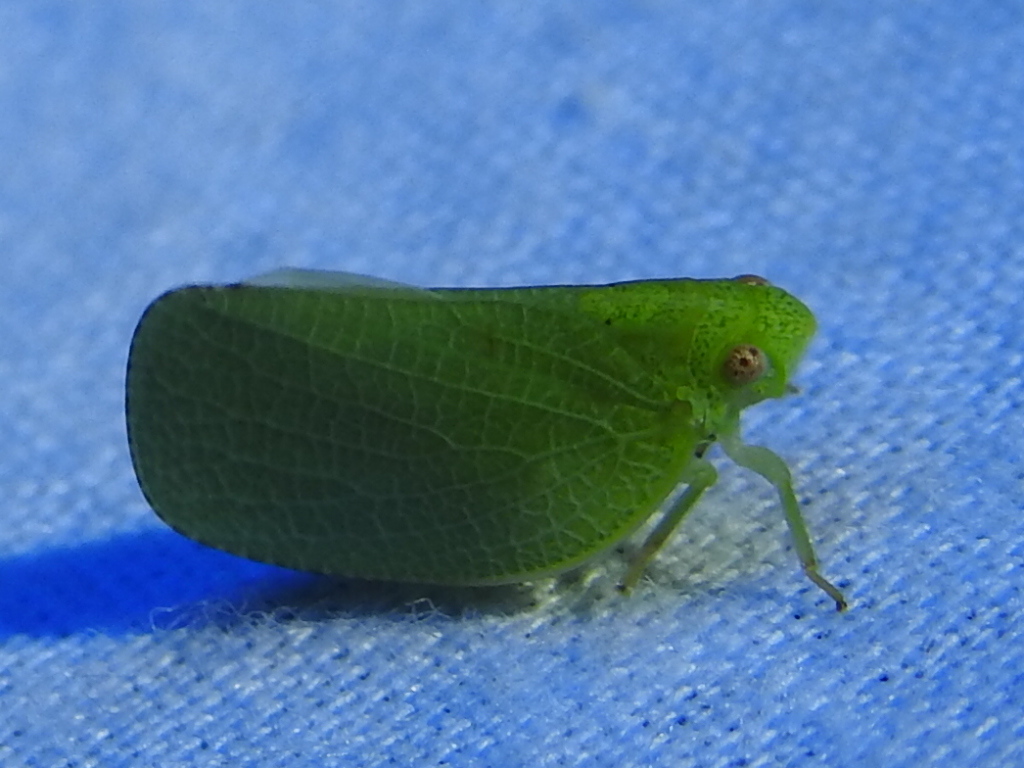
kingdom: Animalia
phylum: Arthropoda
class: Insecta
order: Hemiptera
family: Acanaloniidae
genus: Acanalonia
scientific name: Acanalonia conica
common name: Green cone-headed planthopper
